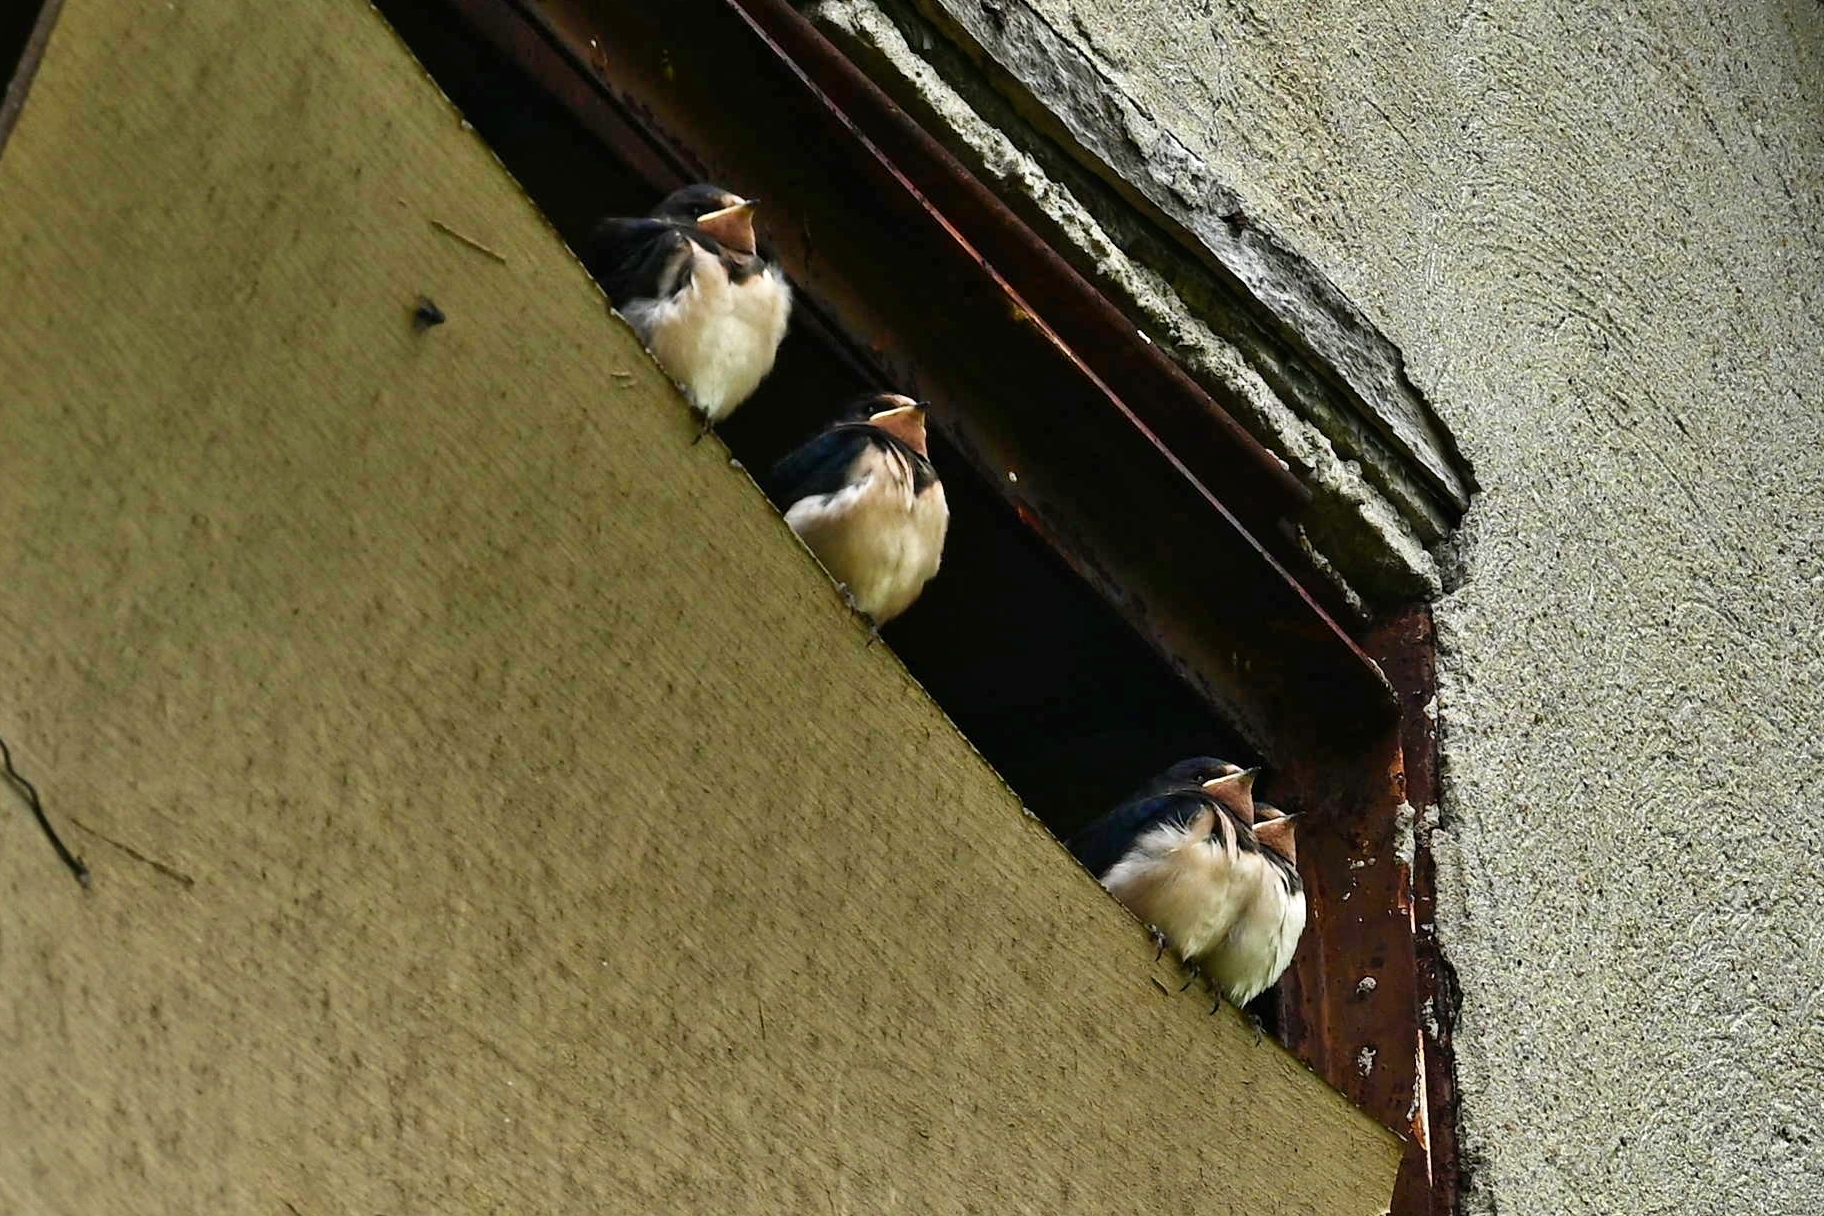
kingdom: Animalia
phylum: Chordata
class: Aves
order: Passeriformes
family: Hirundinidae
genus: Hirundo
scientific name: Hirundo rustica
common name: Barn swallow
